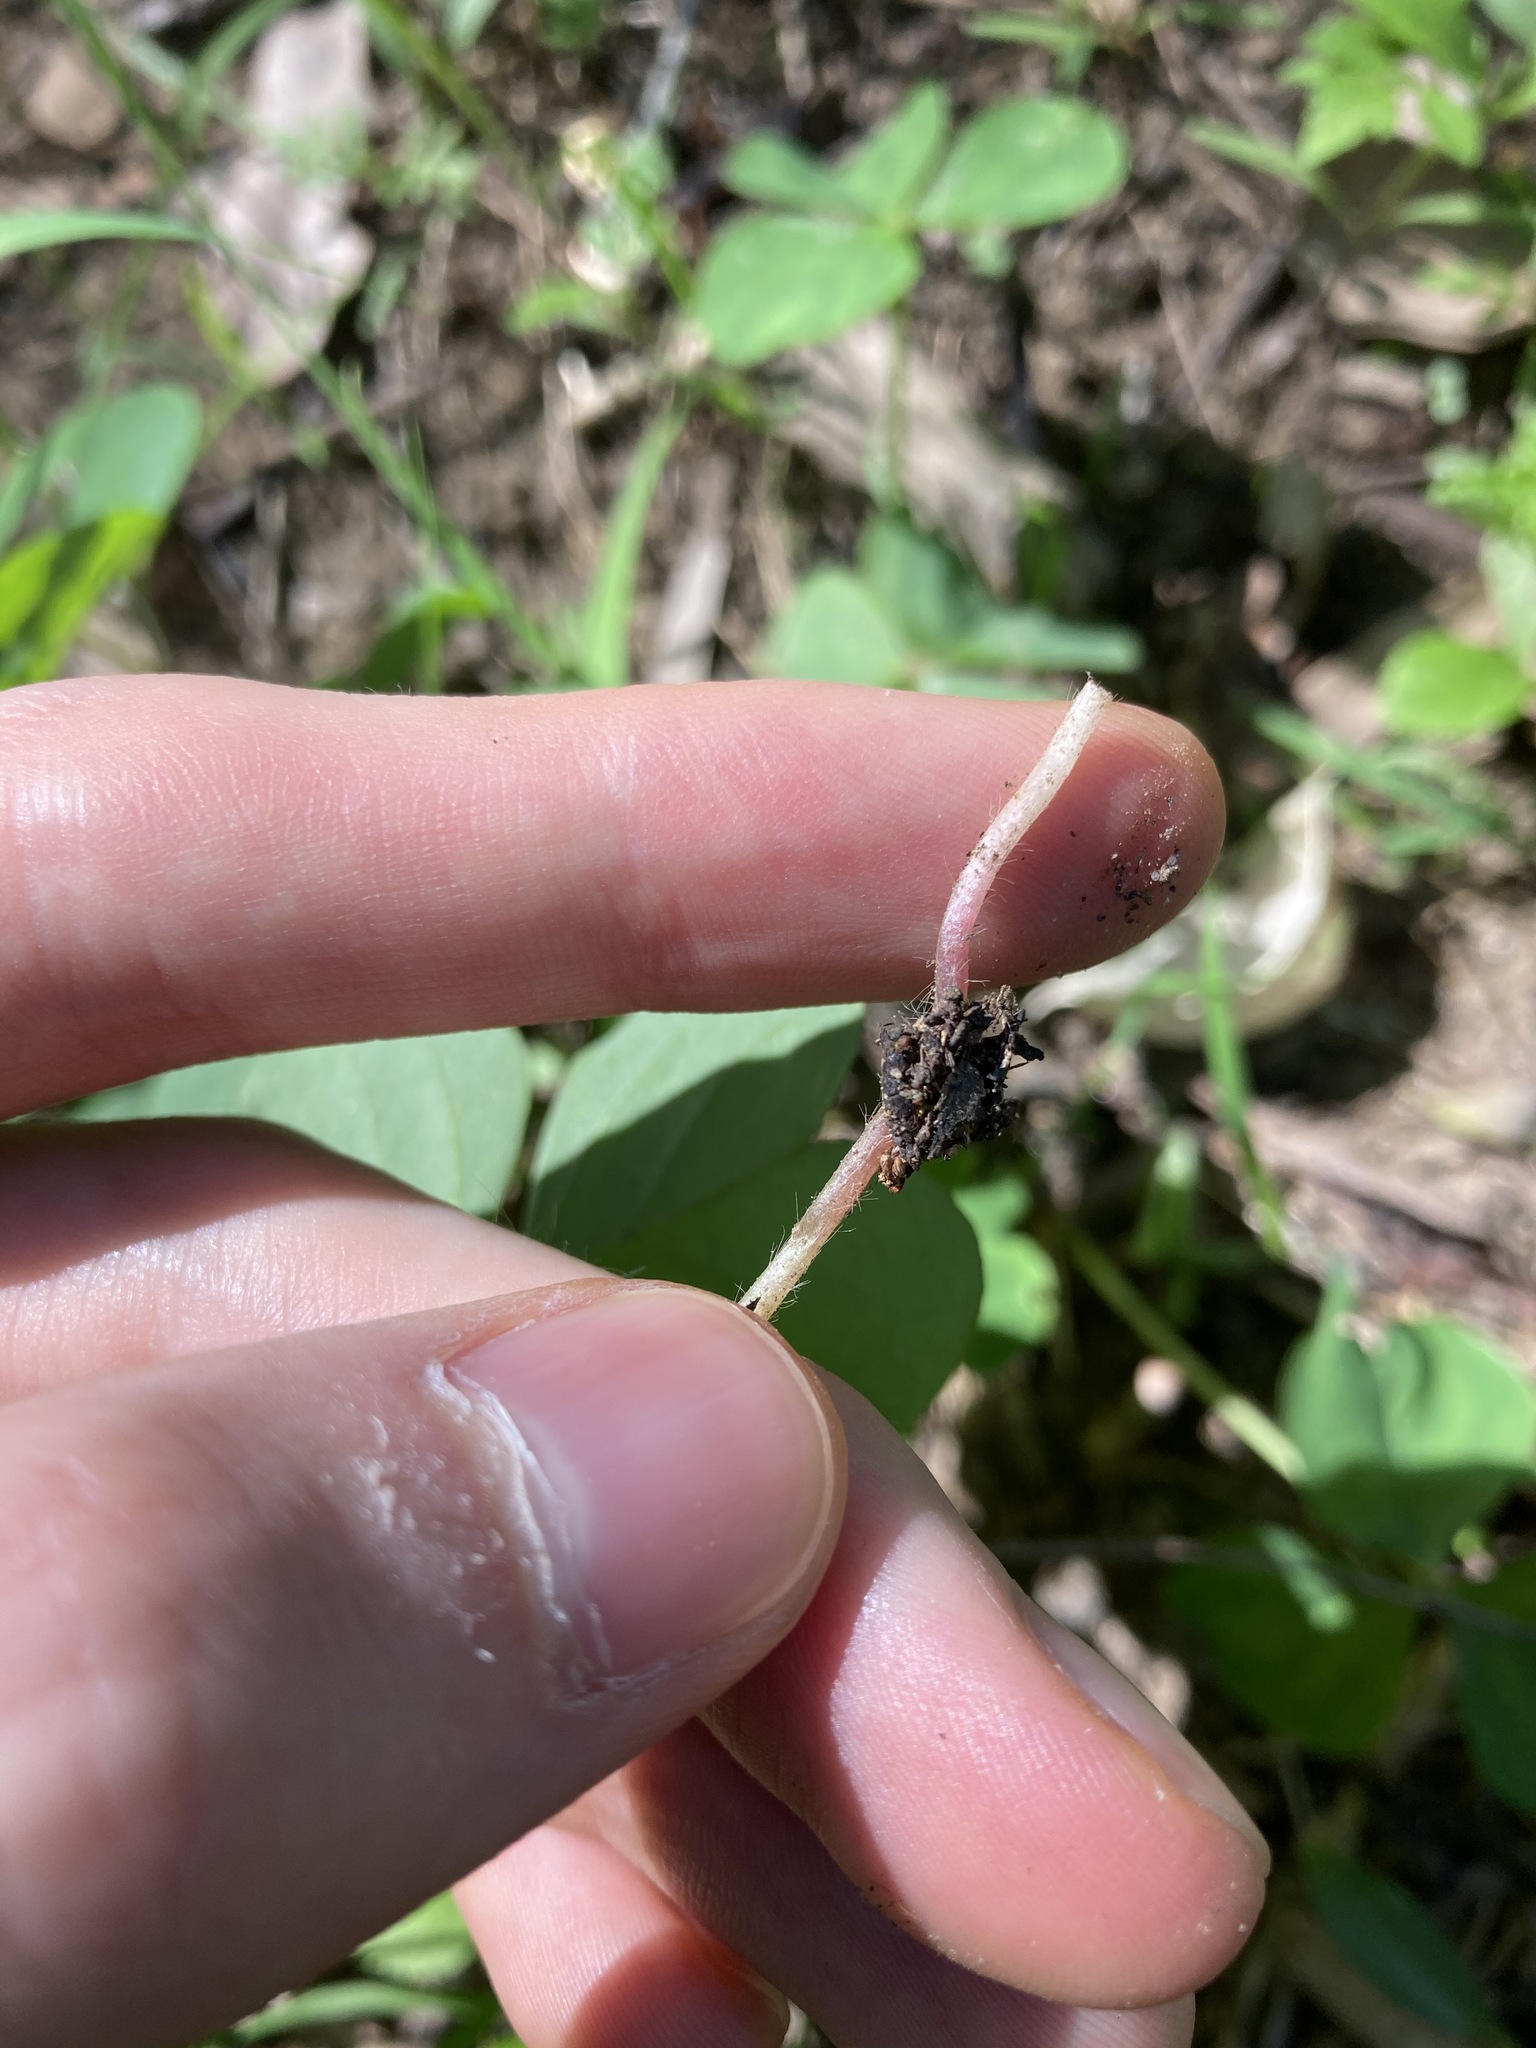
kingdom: Plantae
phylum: Tracheophyta
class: Magnoliopsida
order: Oxalidales
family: Oxalidaceae
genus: Oxalis
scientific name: Oxalis debilis
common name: Large-flowered pink-sorrel
